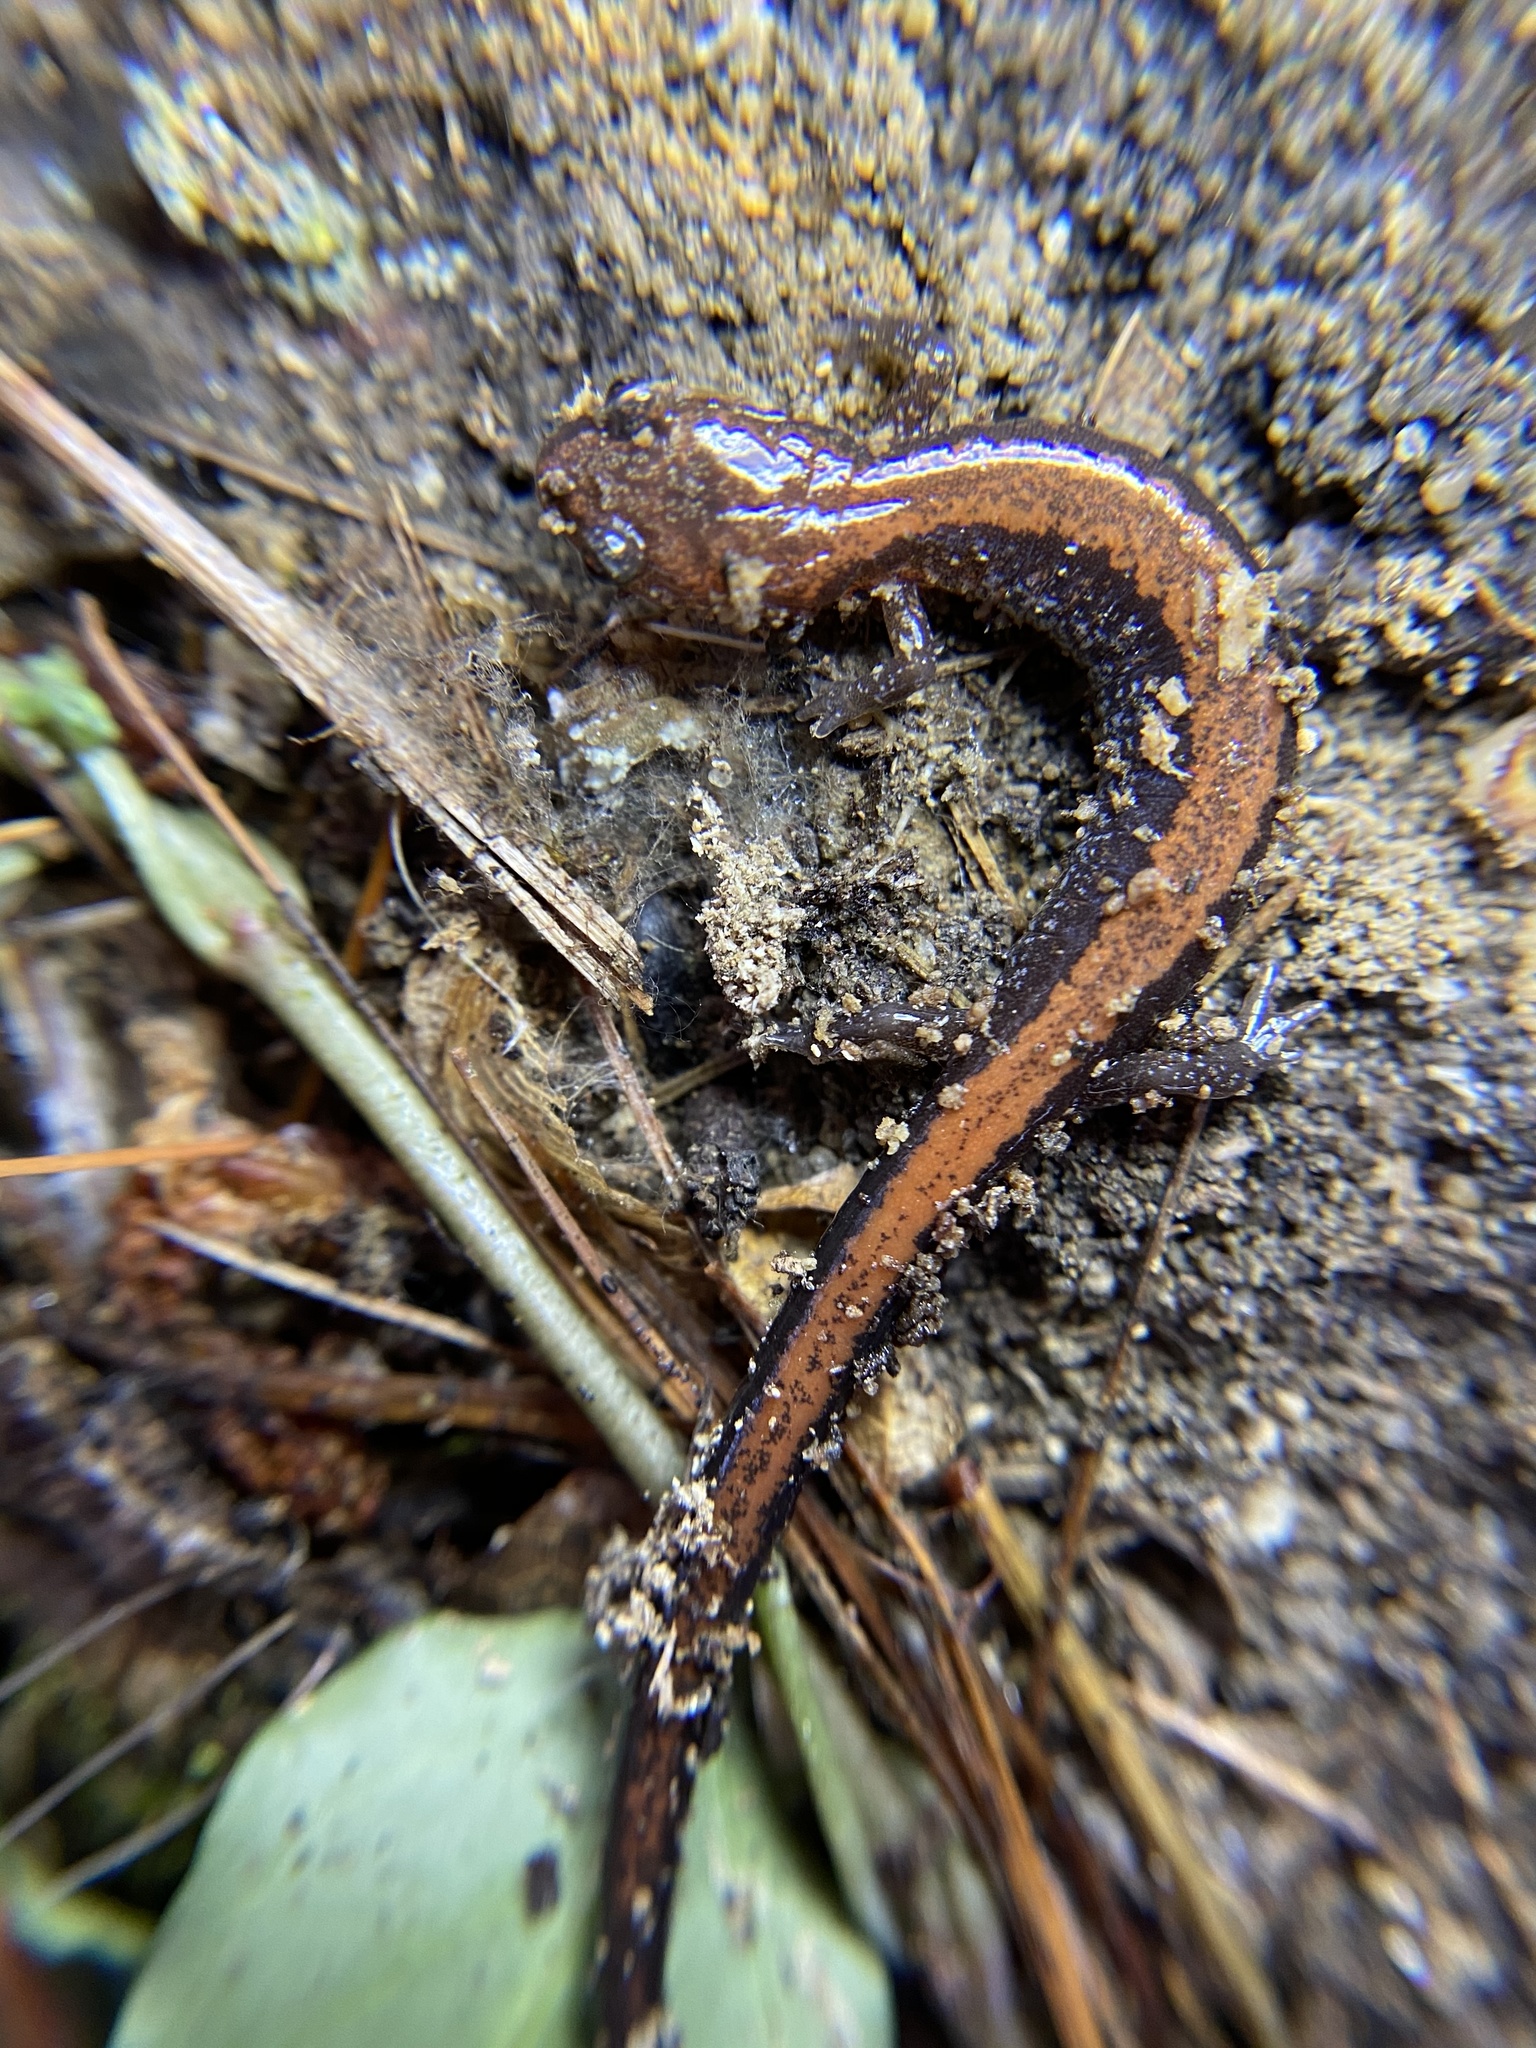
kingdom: Animalia
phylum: Chordata
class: Amphibia
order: Caudata
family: Plethodontidae
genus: Plethodon
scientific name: Plethodon cinereus
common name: Redback salamander
